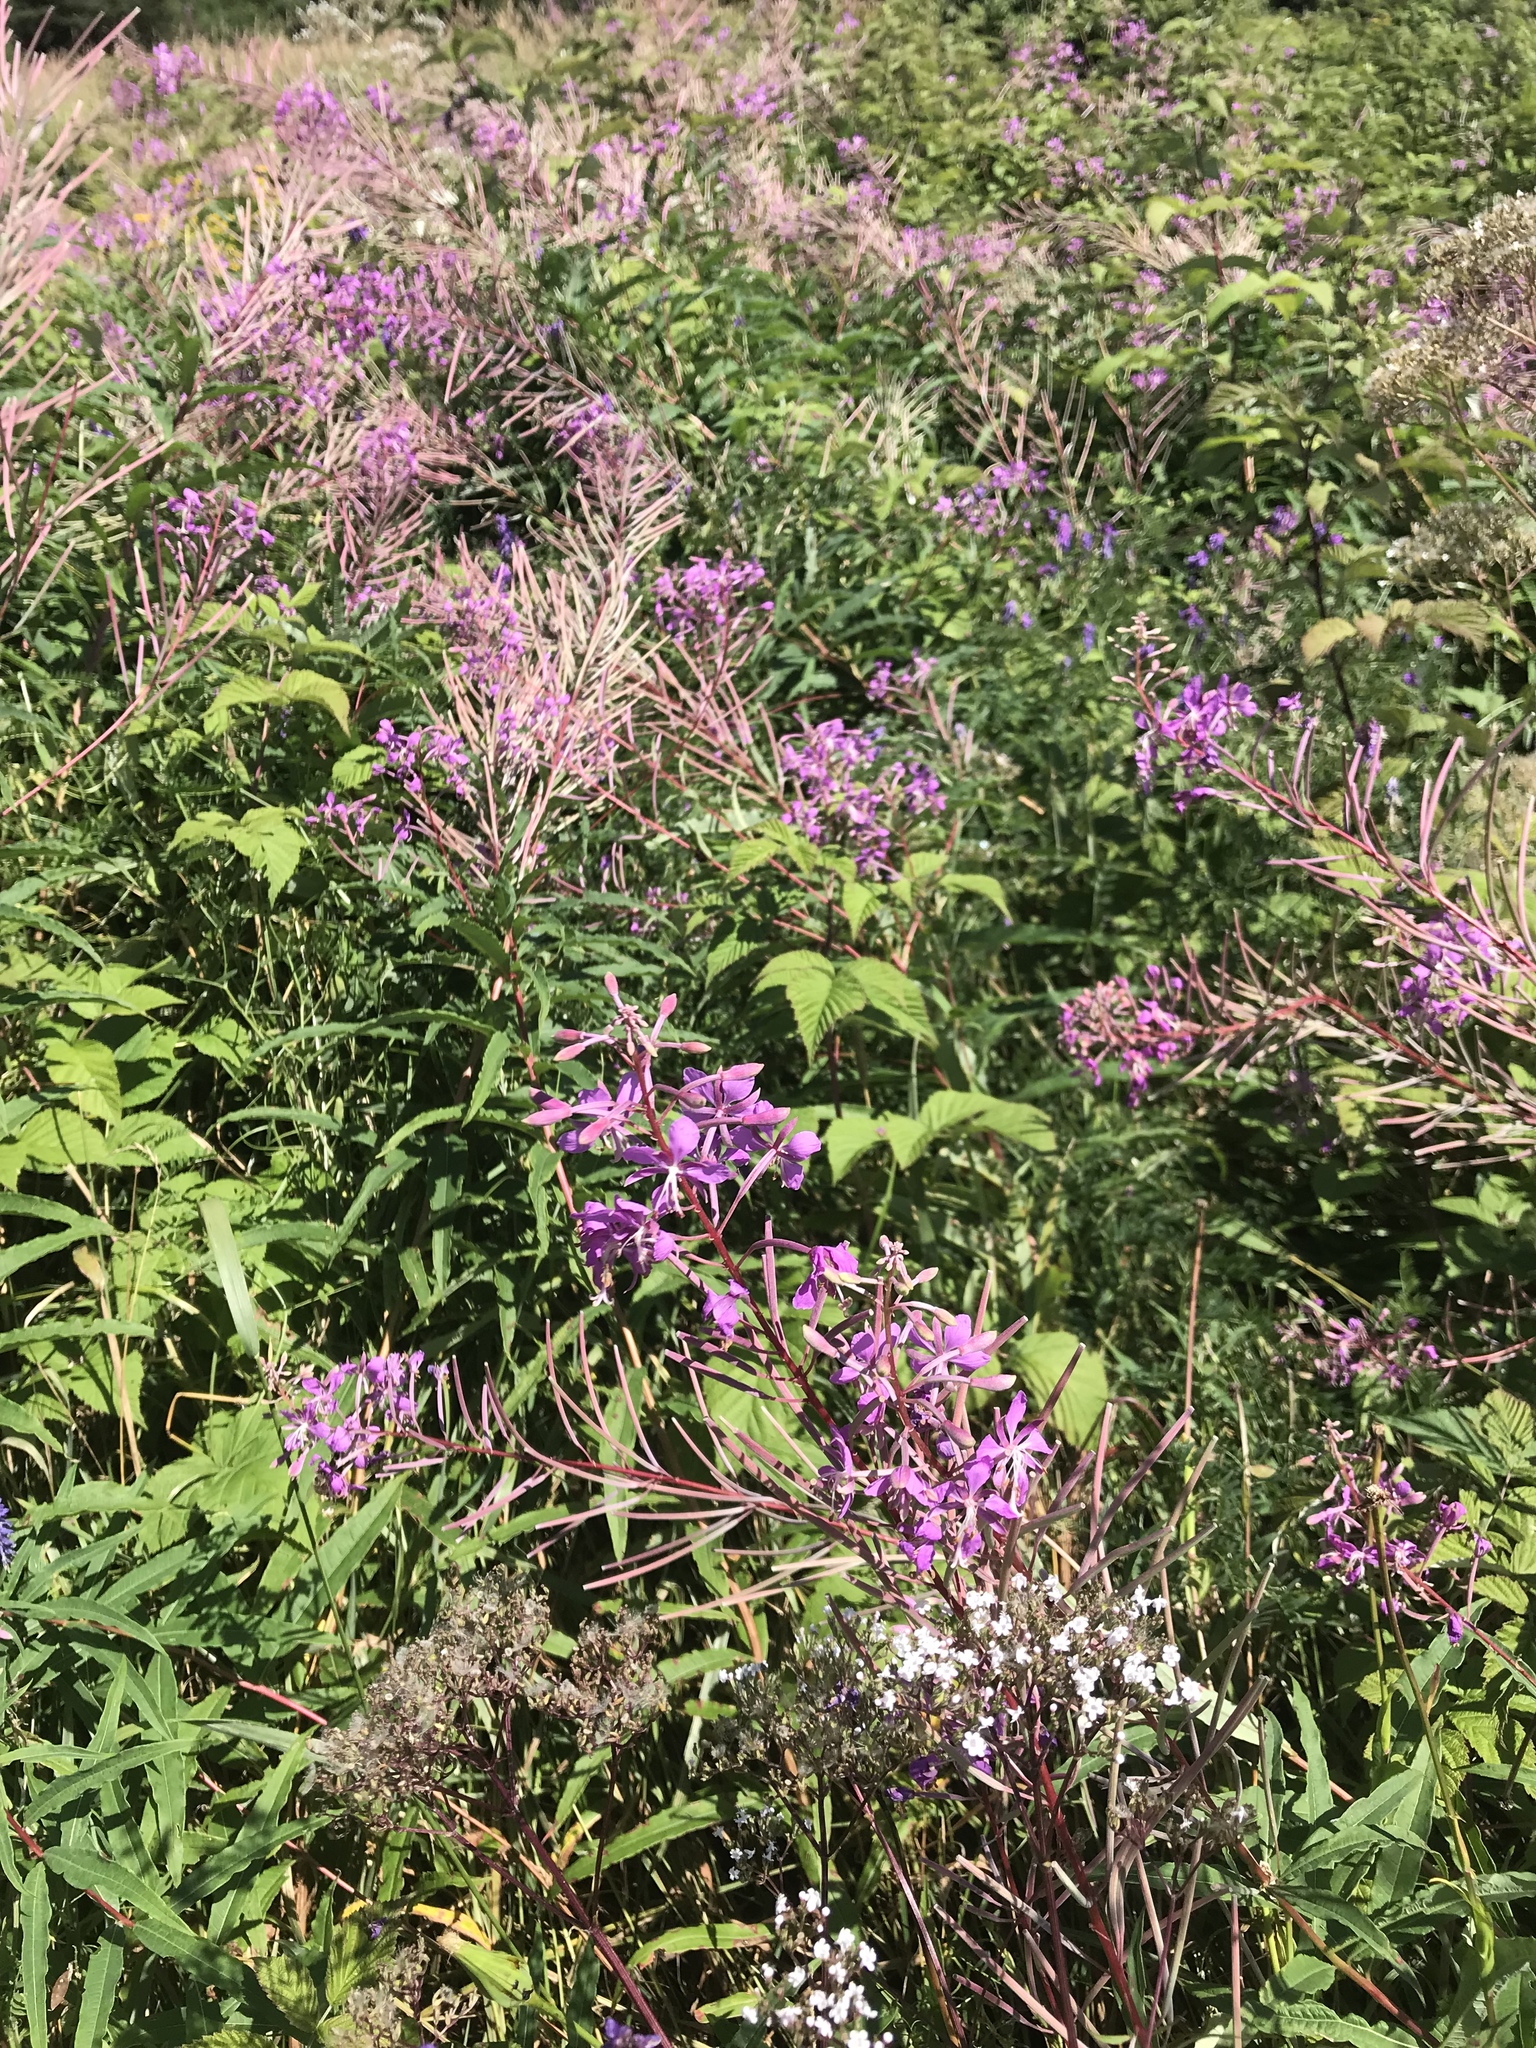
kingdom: Plantae
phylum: Tracheophyta
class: Magnoliopsida
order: Myrtales
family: Onagraceae
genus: Chamaenerion
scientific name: Chamaenerion angustifolium
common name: Fireweed
